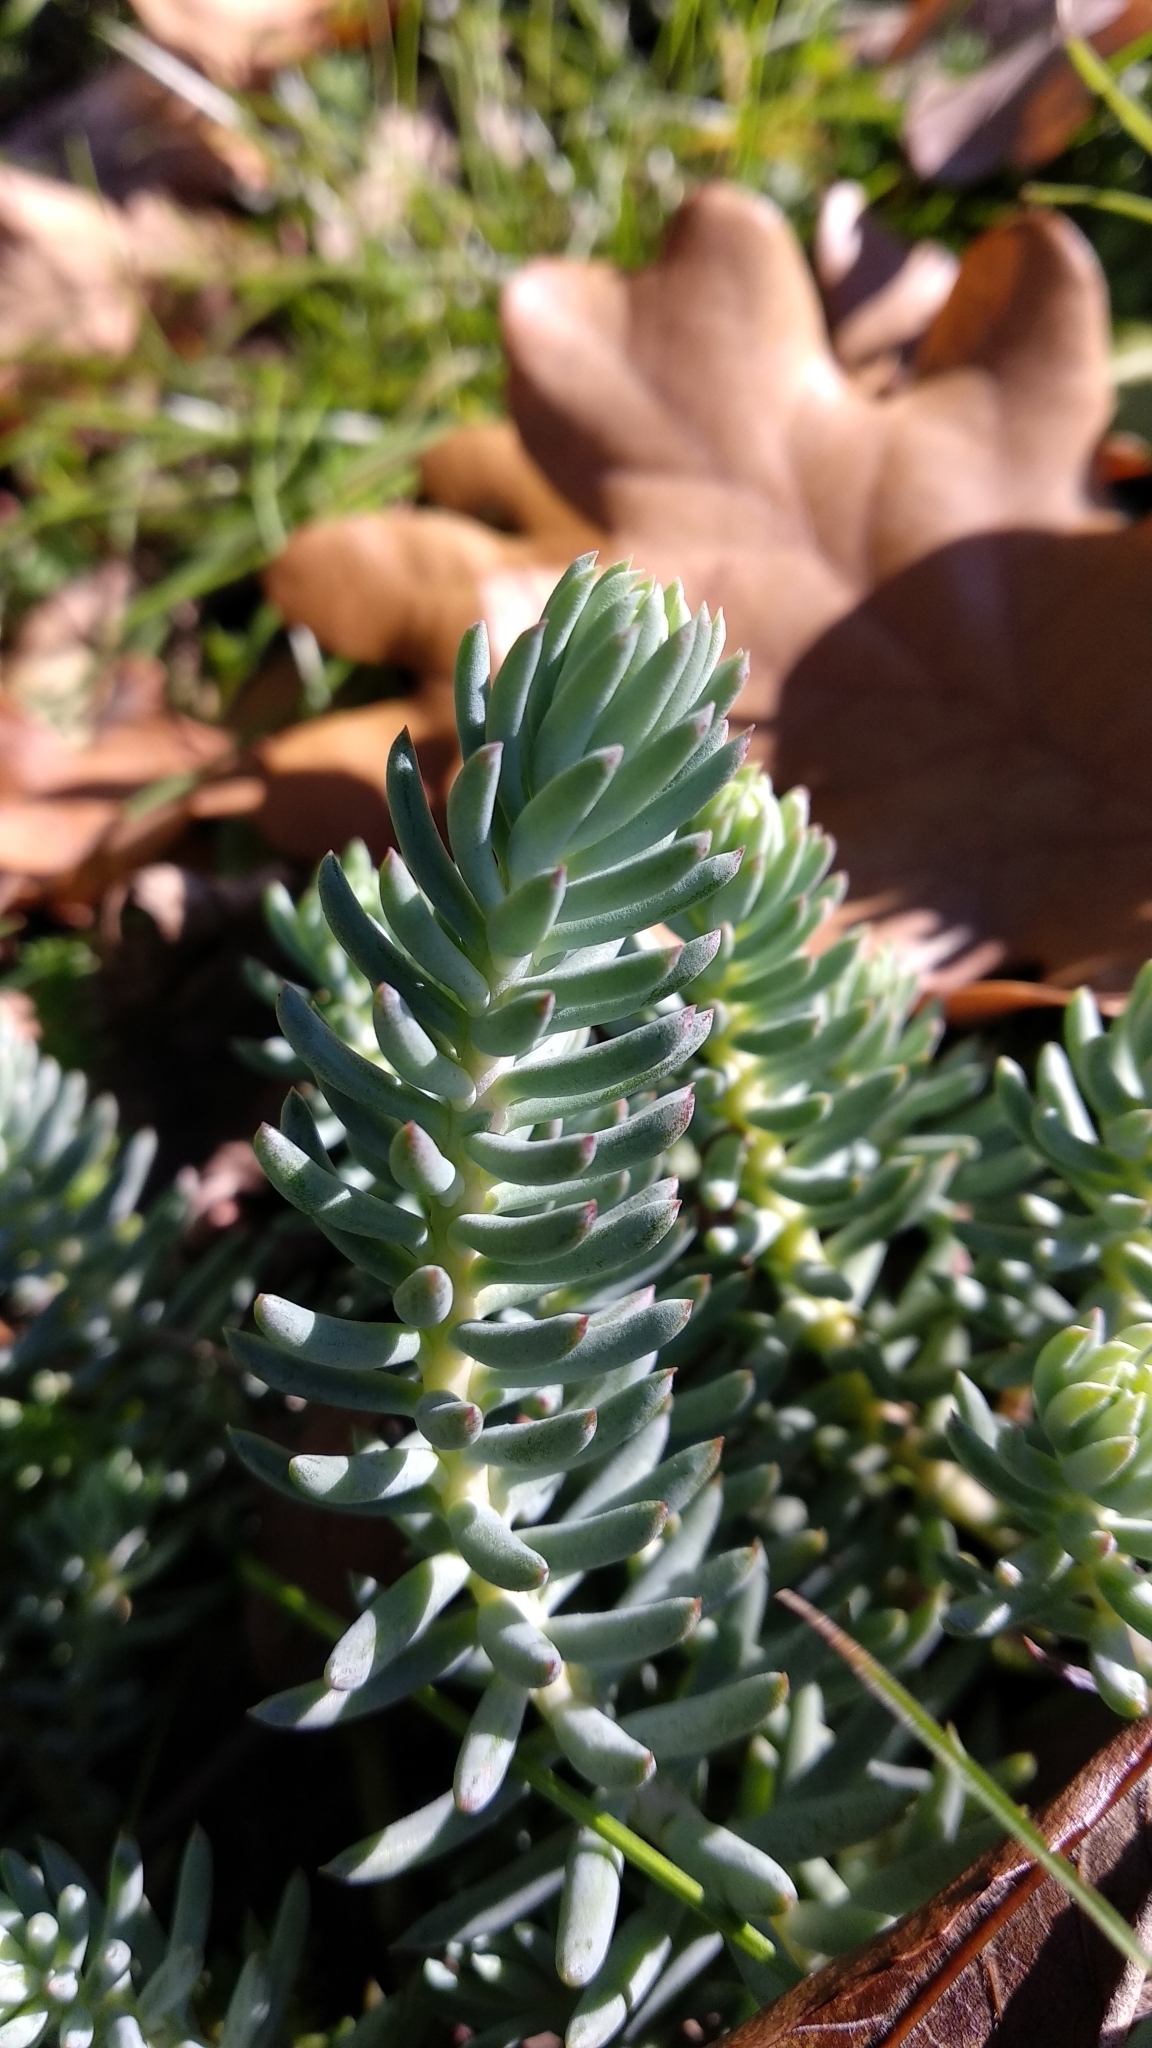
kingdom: Plantae
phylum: Tracheophyta
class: Magnoliopsida
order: Saxifragales
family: Crassulaceae
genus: Petrosedum
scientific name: Petrosedum rupestre
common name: Jenny's stonecrop
